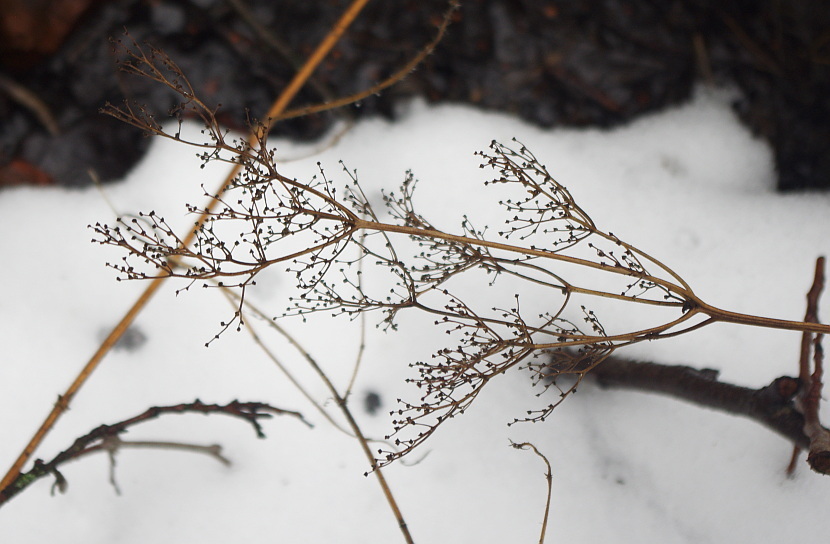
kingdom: Plantae
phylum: Tracheophyta
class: Magnoliopsida
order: Rosales
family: Rosaceae
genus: Filipendula
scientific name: Filipendula ulmaria
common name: Meadowsweet
